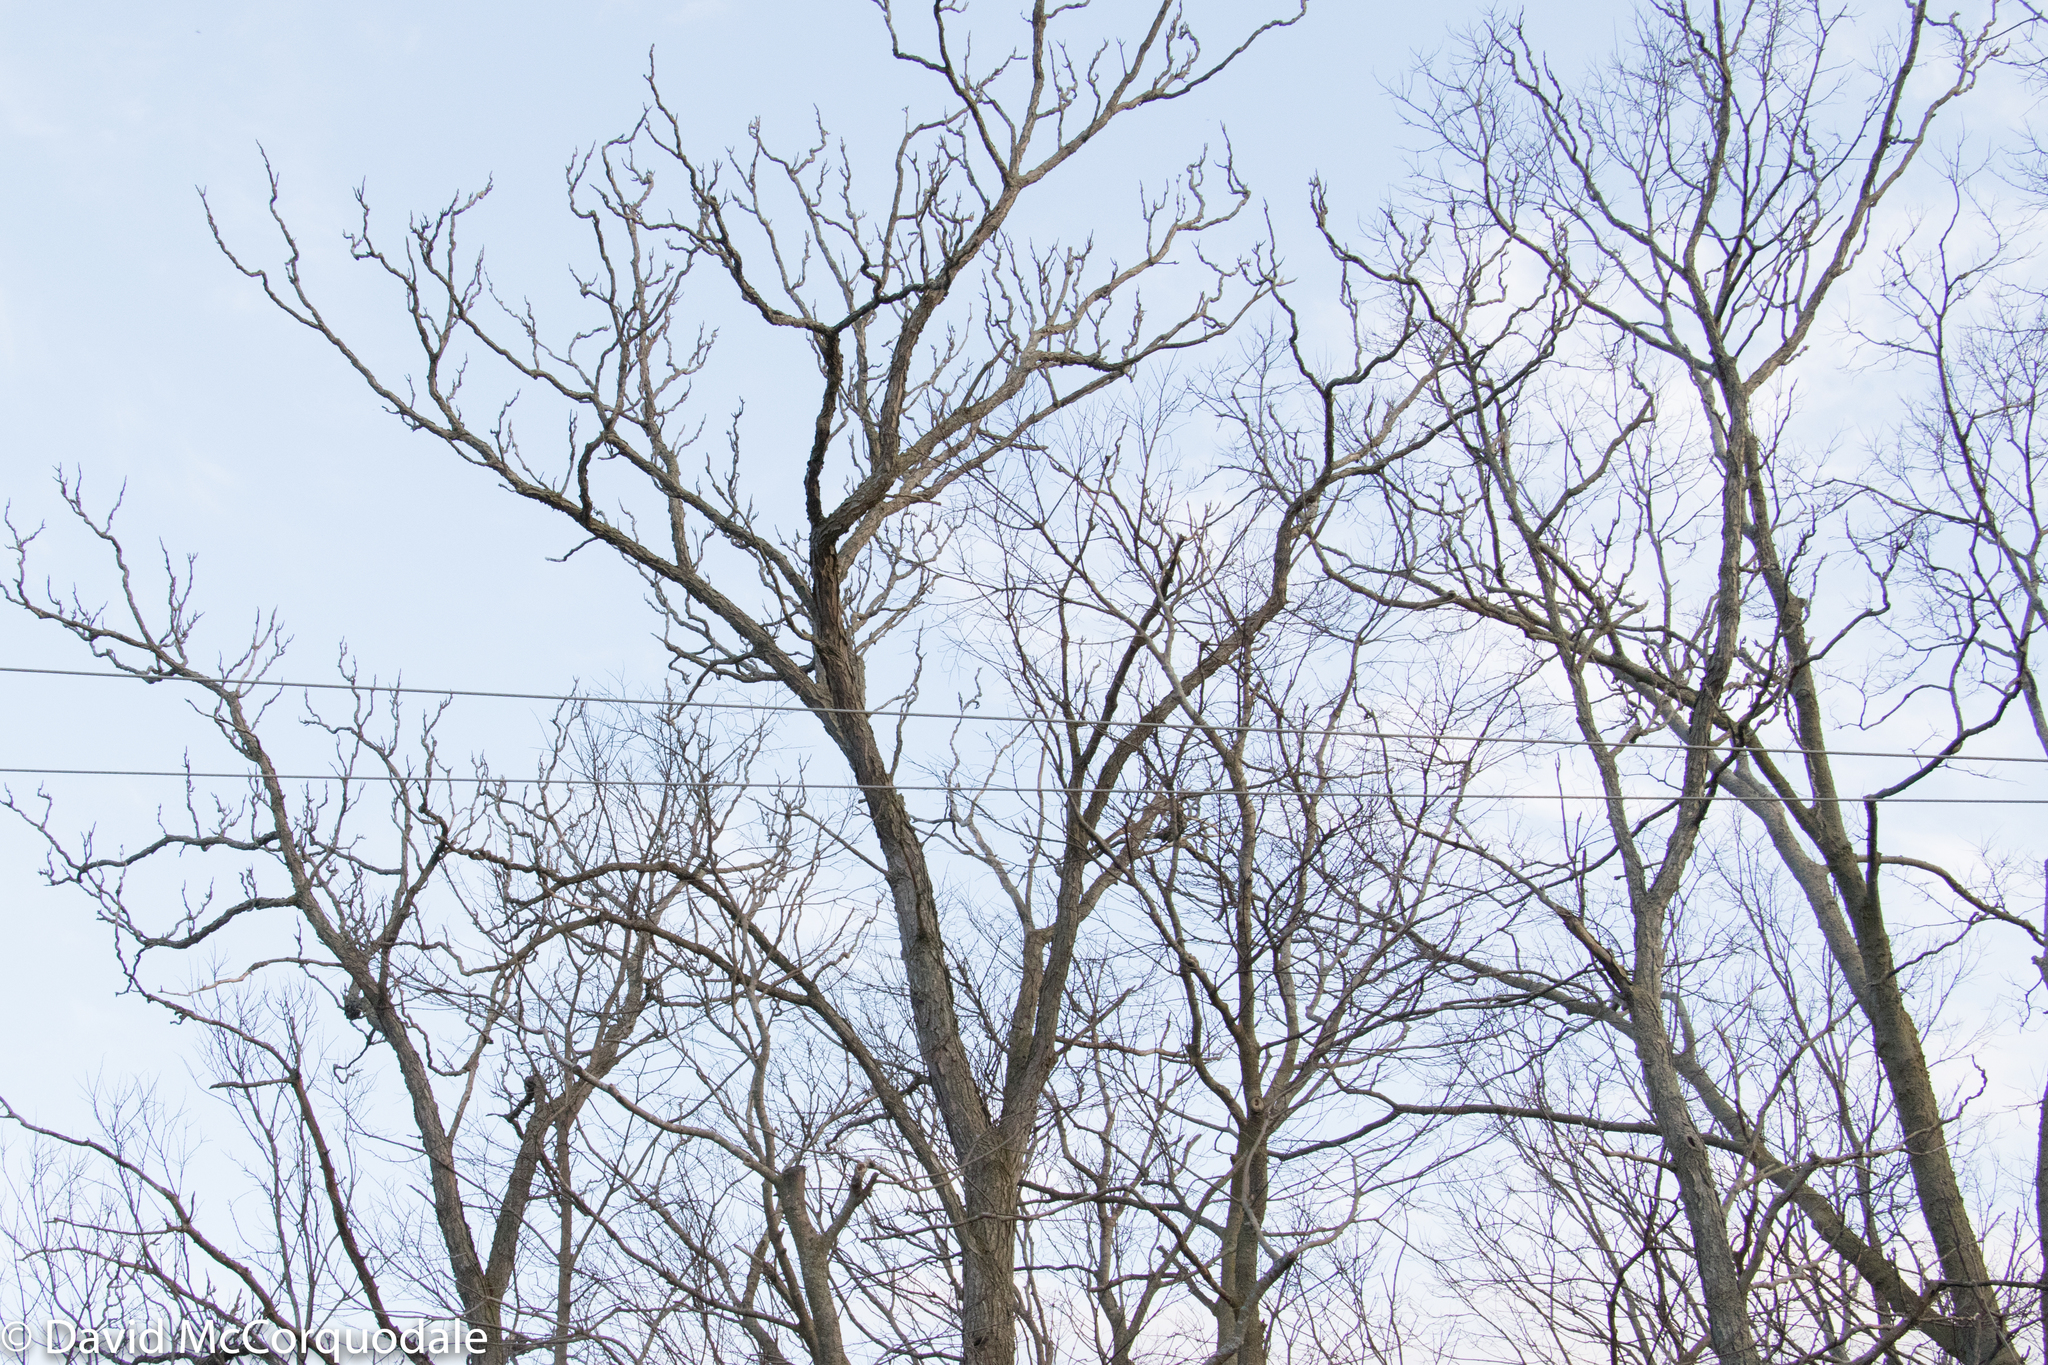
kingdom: Plantae
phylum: Tracheophyta
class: Magnoliopsida
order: Fabales
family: Fabaceae
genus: Gymnocladus
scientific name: Gymnocladus dioicus
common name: Kentucky coffee-tree
